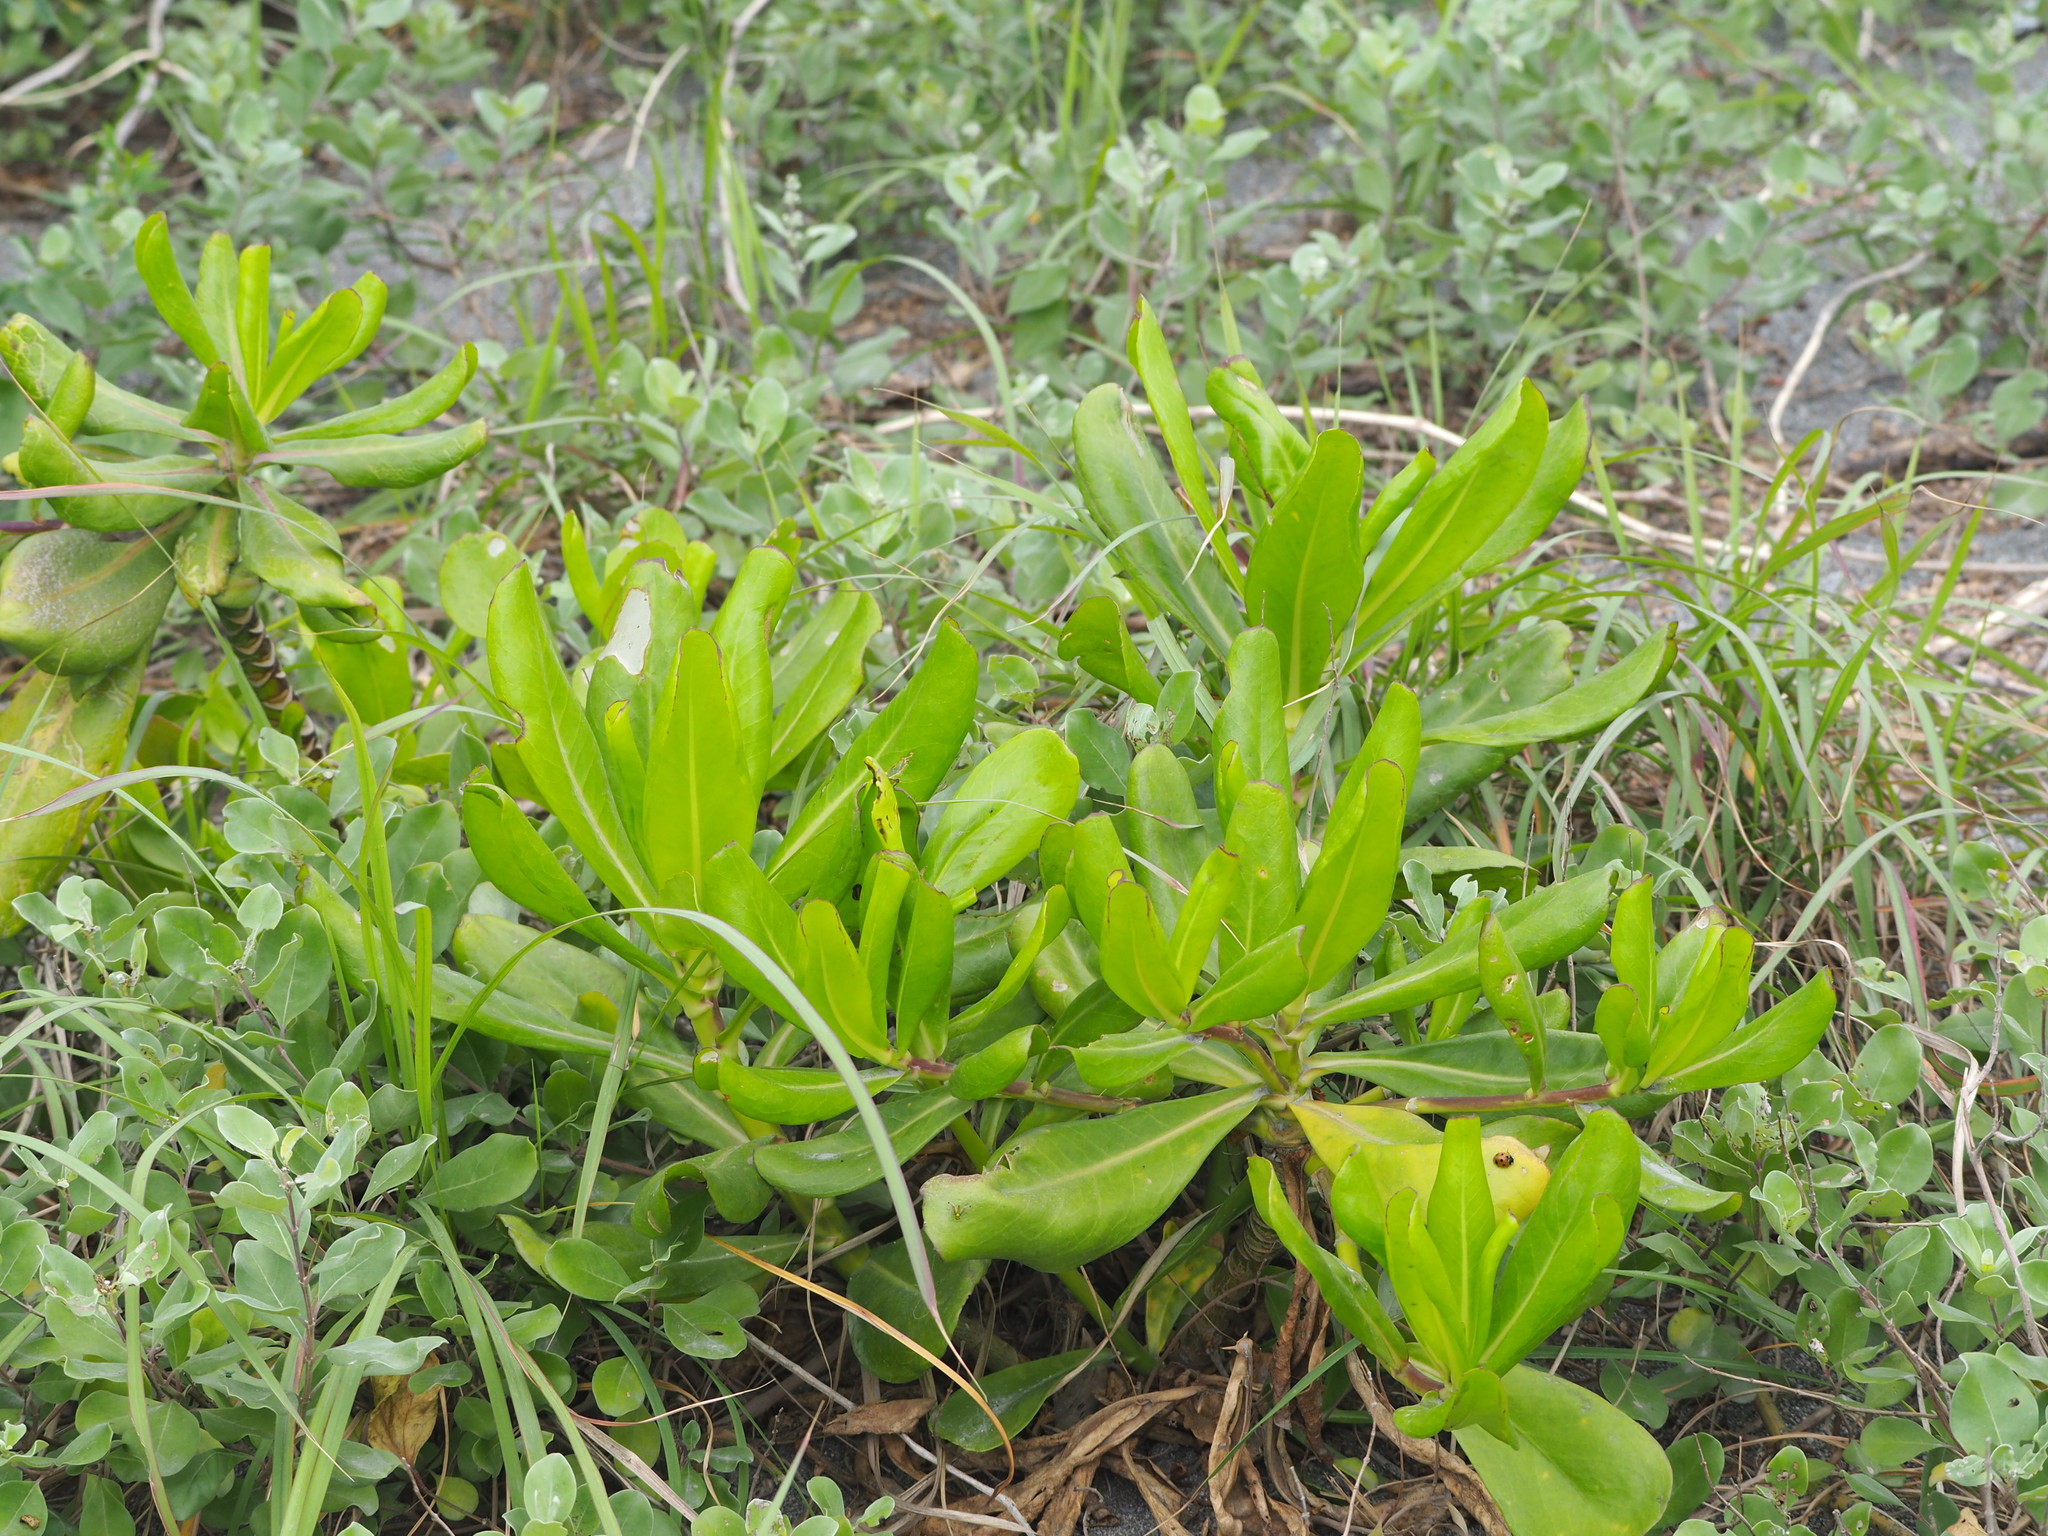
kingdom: Plantae
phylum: Tracheophyta
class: Magnoliopsida
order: Asterales
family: Goodeniaceae
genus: Scaevola
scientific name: Scaevola taccada
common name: Sea lettucetree
